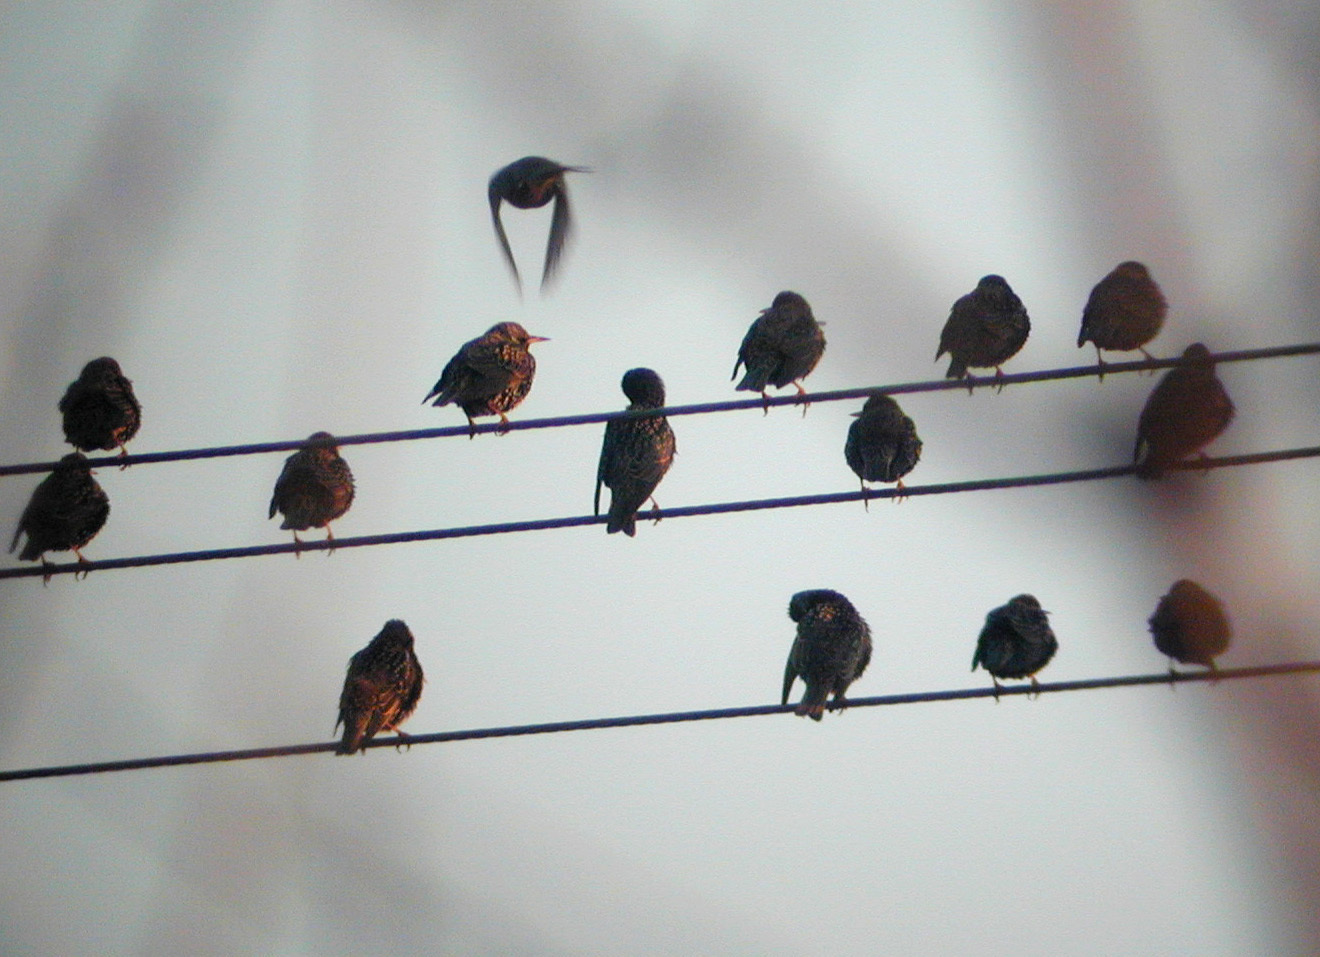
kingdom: Animalia
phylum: Chordata
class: Aves
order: Passeriformes
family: Sturnidae
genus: Sturnus
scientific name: Sturnus vulgaris
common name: Common starling
